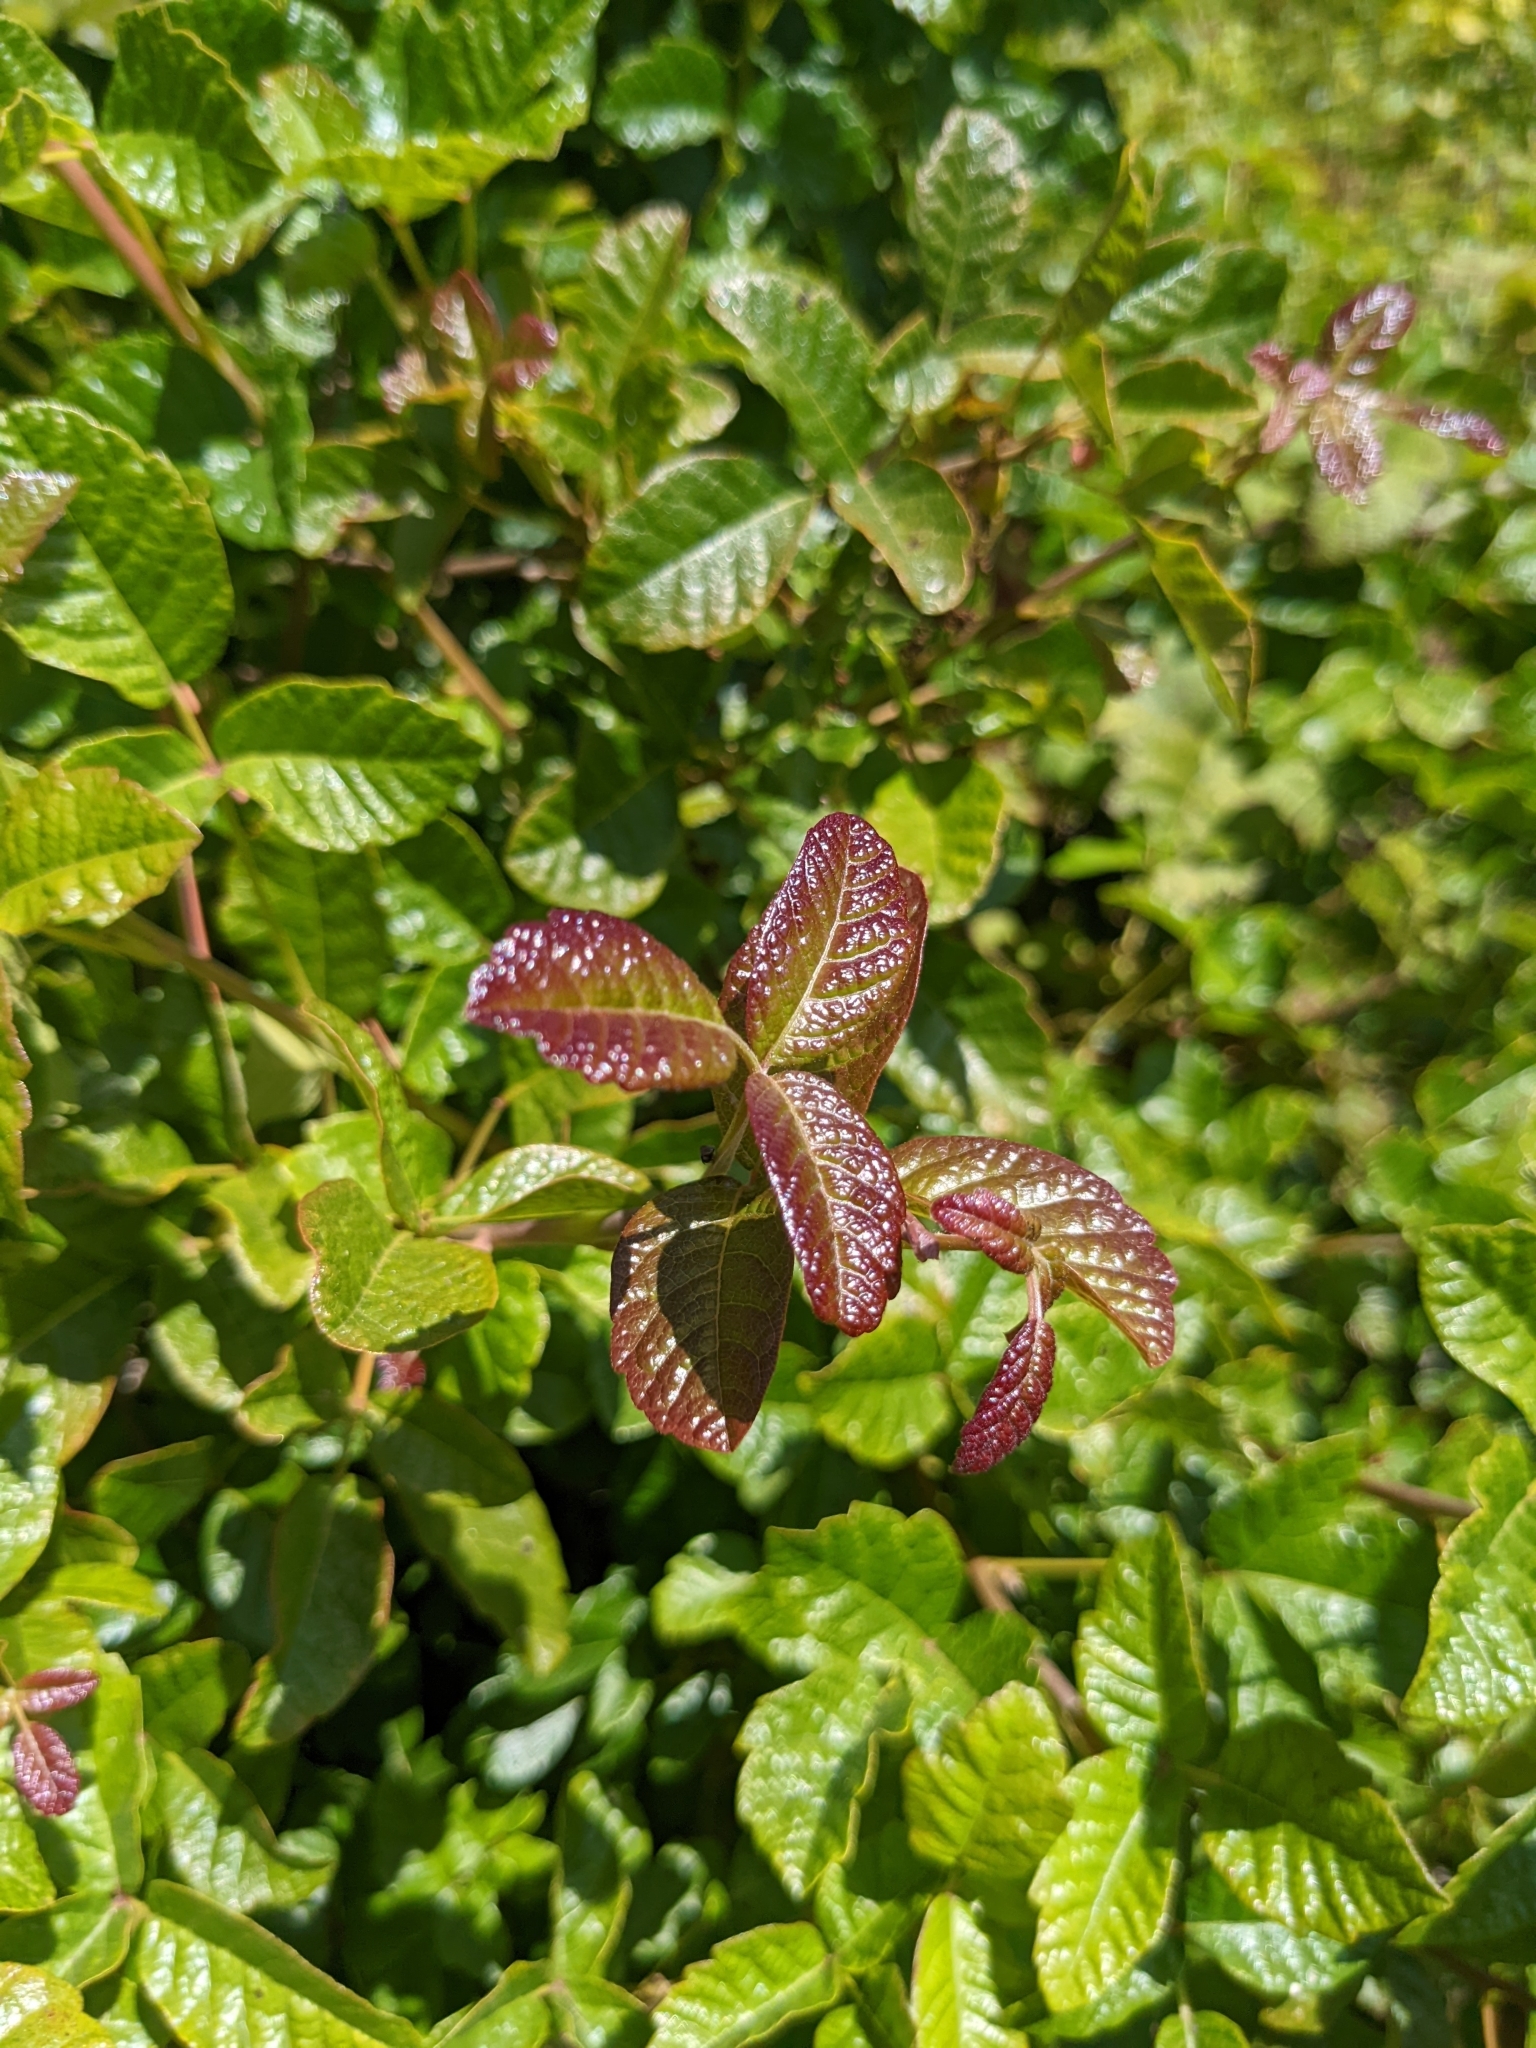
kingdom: Plantae
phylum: Tracheophyta
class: Magnoliopsida
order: Sapindales
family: Anacardiaceae
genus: Toxicodendron
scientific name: Toxicodendron diversilobum
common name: Pacific poison-oak
